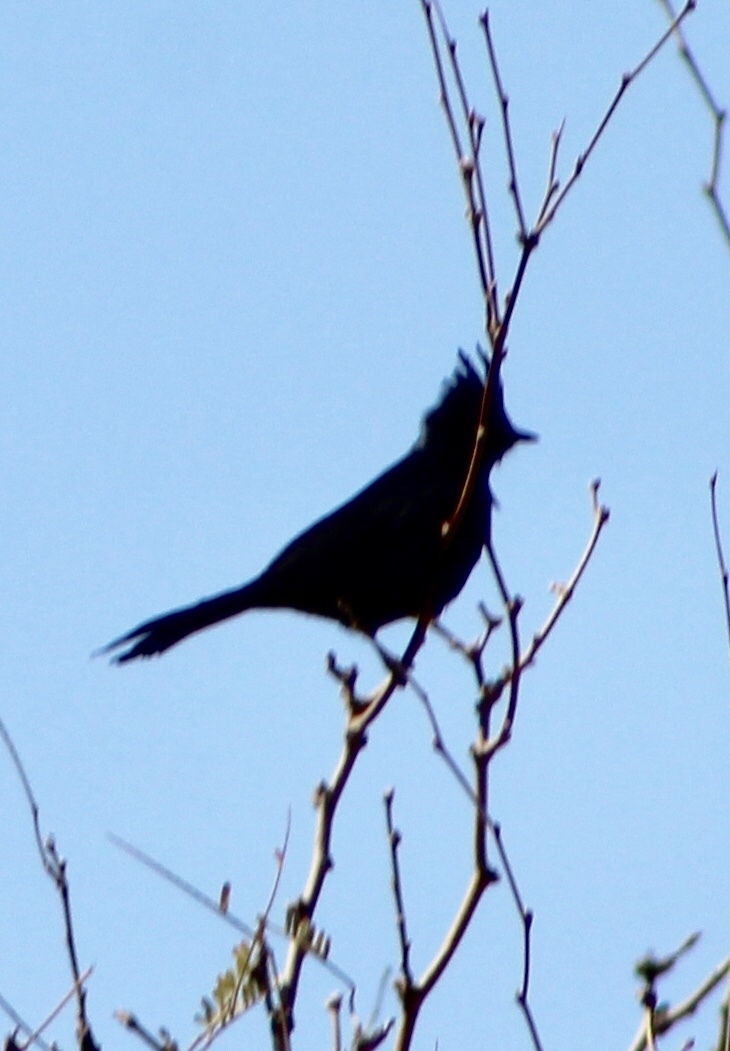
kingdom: Animalia
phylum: Chordata
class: Aves
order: Passeriformes
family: Ptilogonatidae
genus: Phainopepla
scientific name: Phainopepla nitens
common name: Phainopepla
